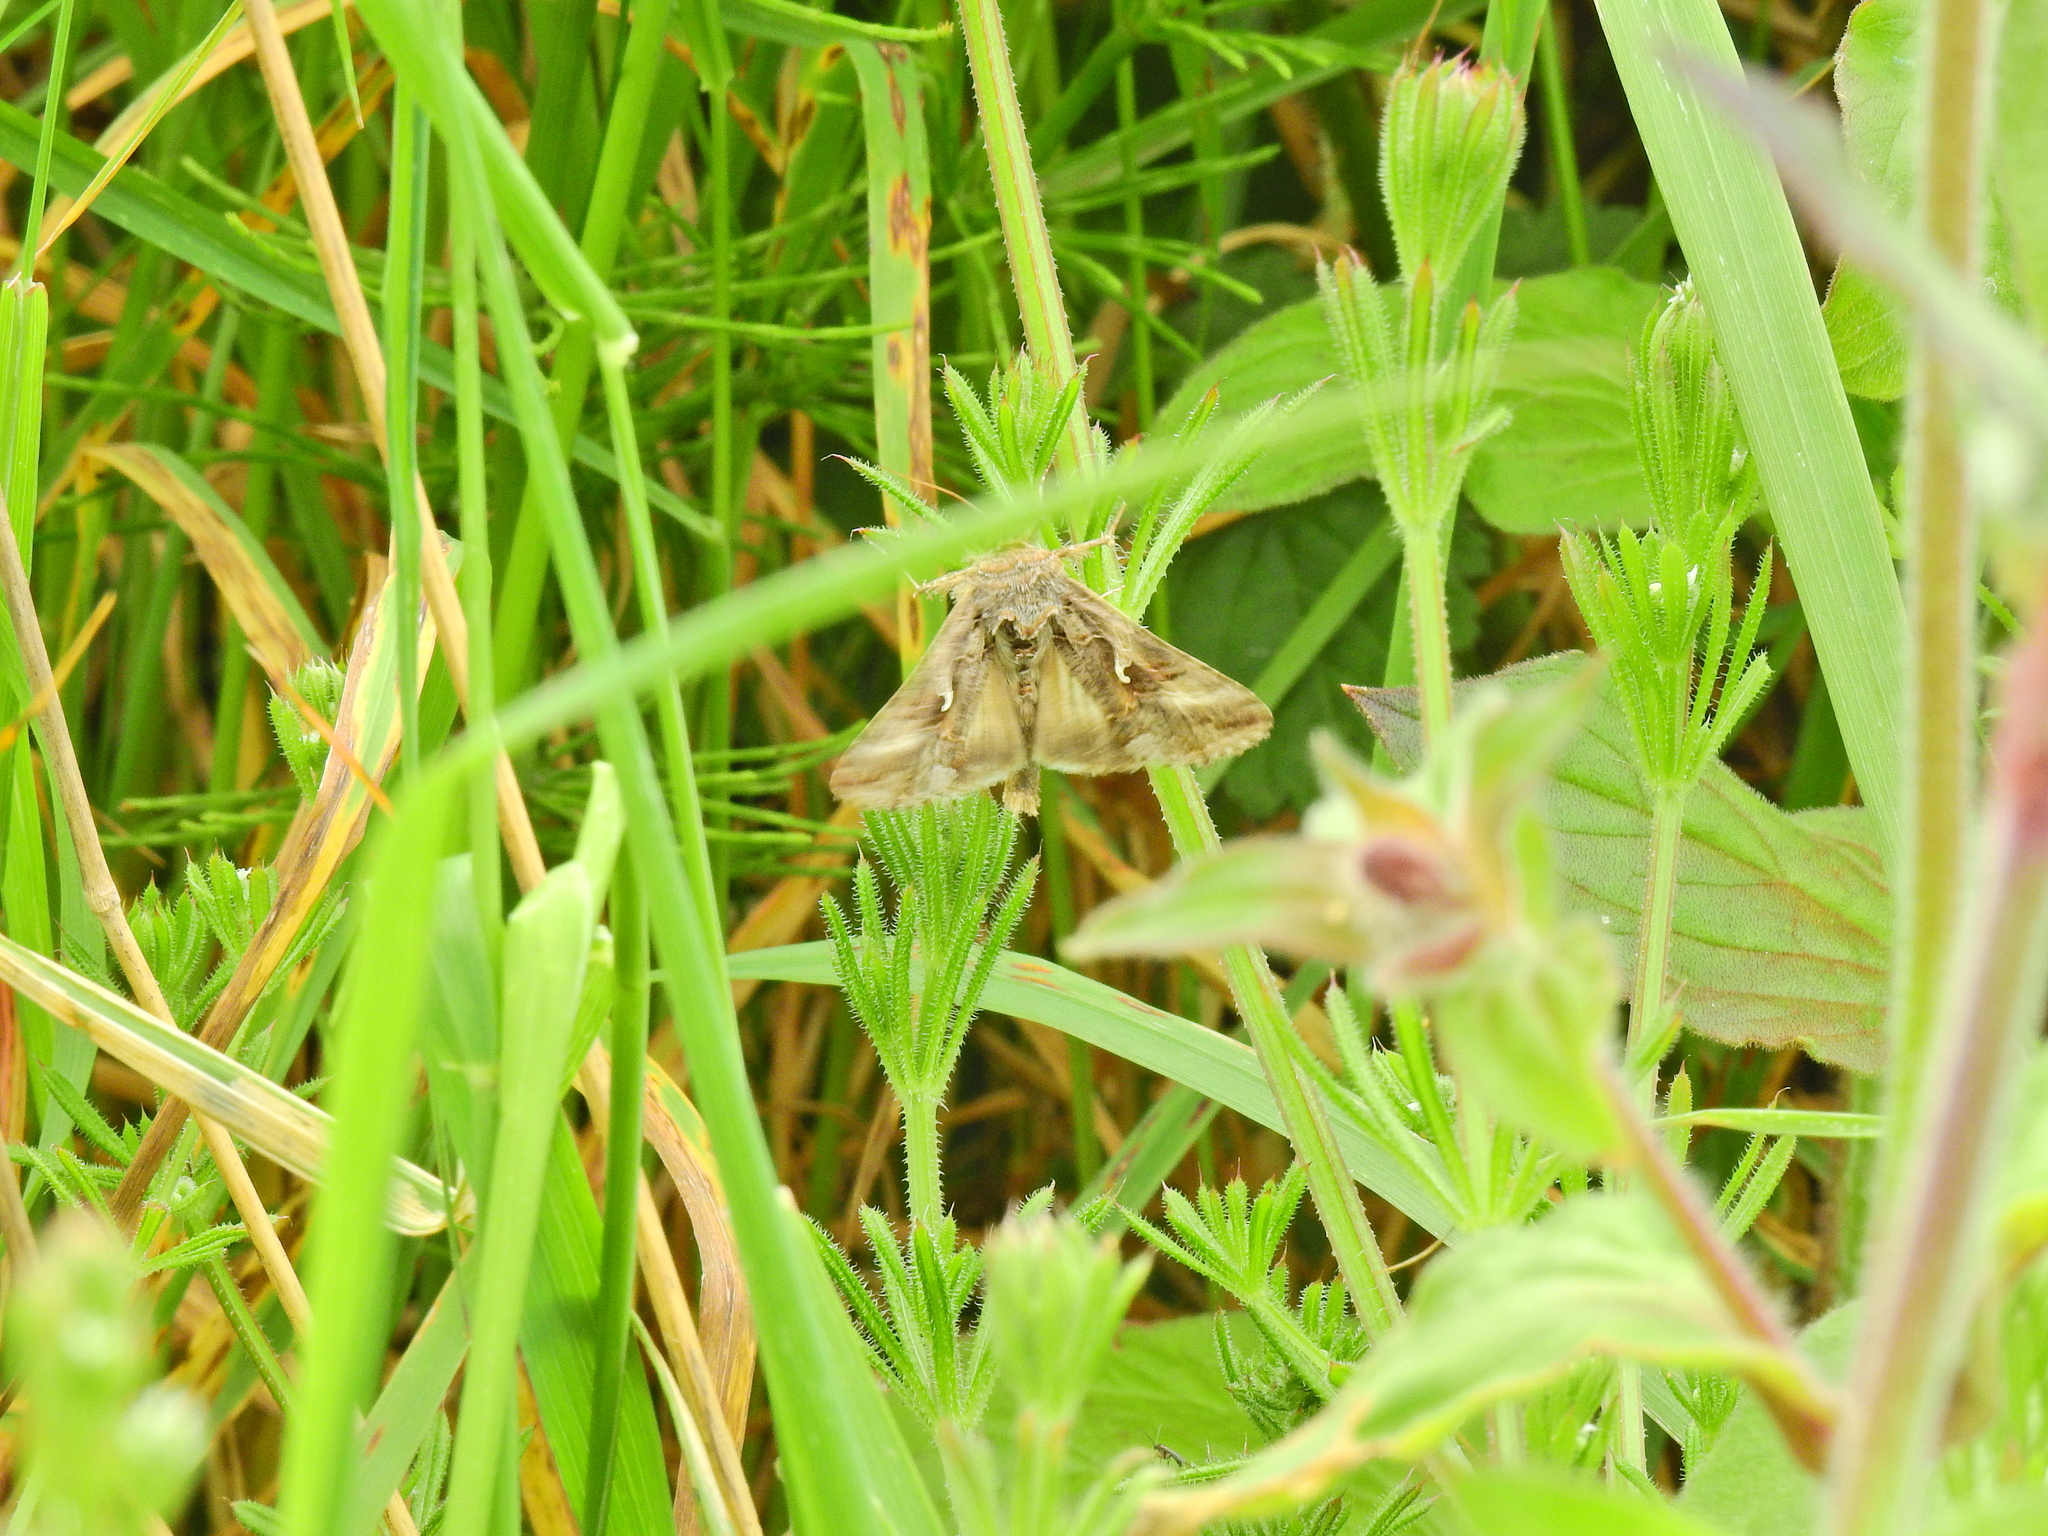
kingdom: Animalia
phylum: Arthropoda
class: Insecta
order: Lepidoptera
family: Noctuidae
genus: Autographa
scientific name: Autographa gamma
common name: Silver y
